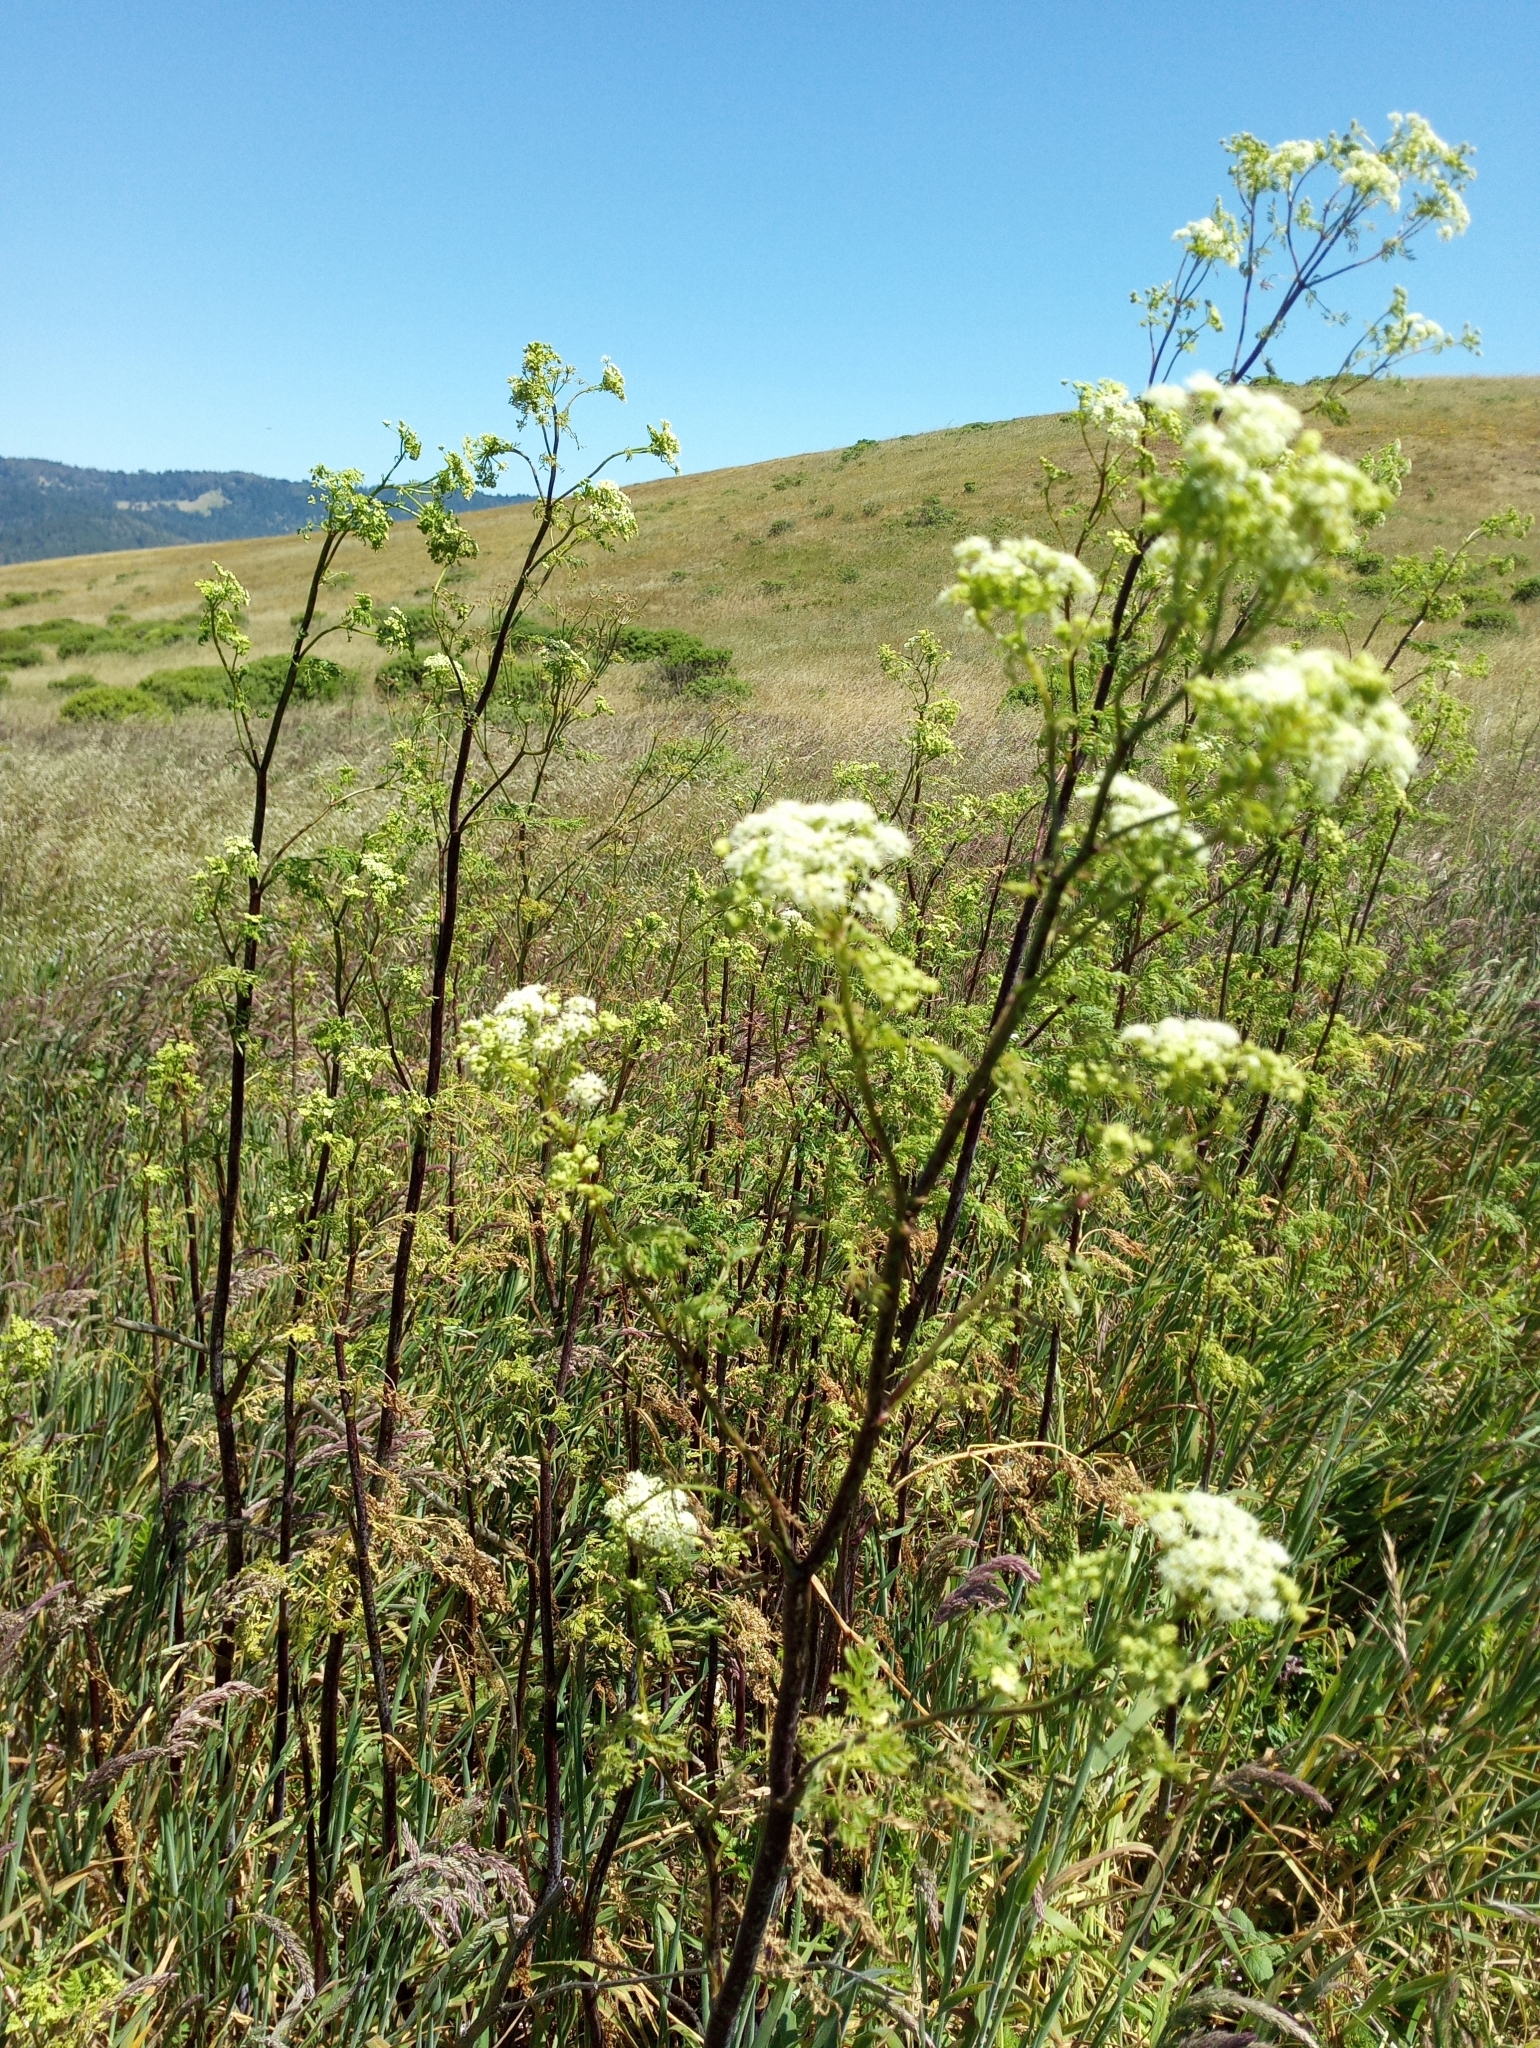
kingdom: Plantae
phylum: Tracheophyta
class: Magnoliopsida
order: Apiales
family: Apiaceae
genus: Conium
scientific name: Conium maculatum
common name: Hemlock
